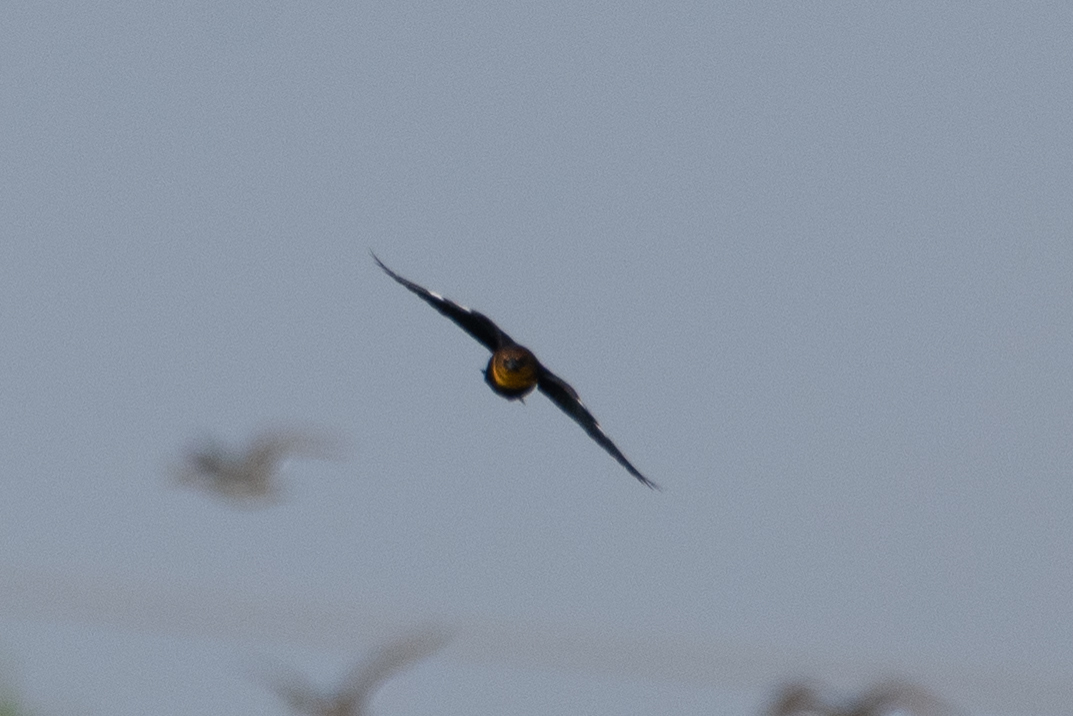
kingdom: Animalia
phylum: Chordata
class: Aves
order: Passeriformes
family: Icteridae
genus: Xanthocephalus
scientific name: Xanthocephalus xanthocephalus
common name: Yellow-headed blackbird
